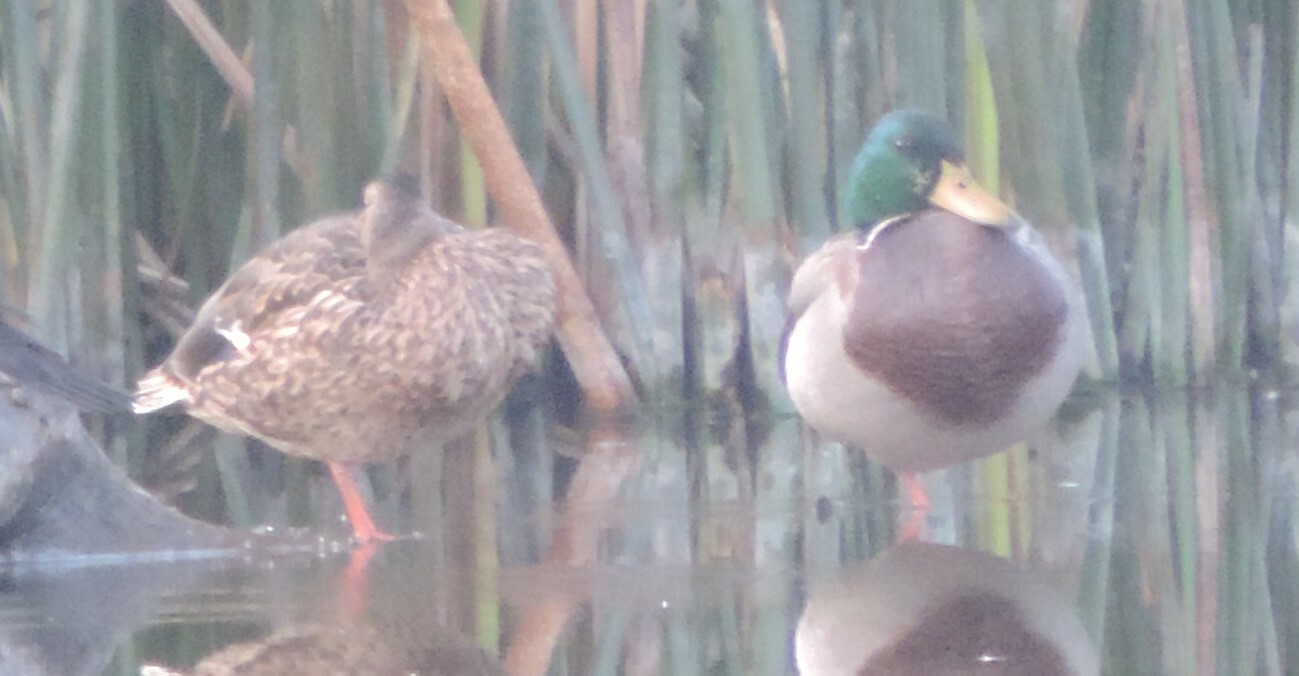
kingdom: Animalia
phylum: Chordata
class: Aves
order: Anseriformes
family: Anatidae
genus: Anas
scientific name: Anas platyrhynchos
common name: Mallard
